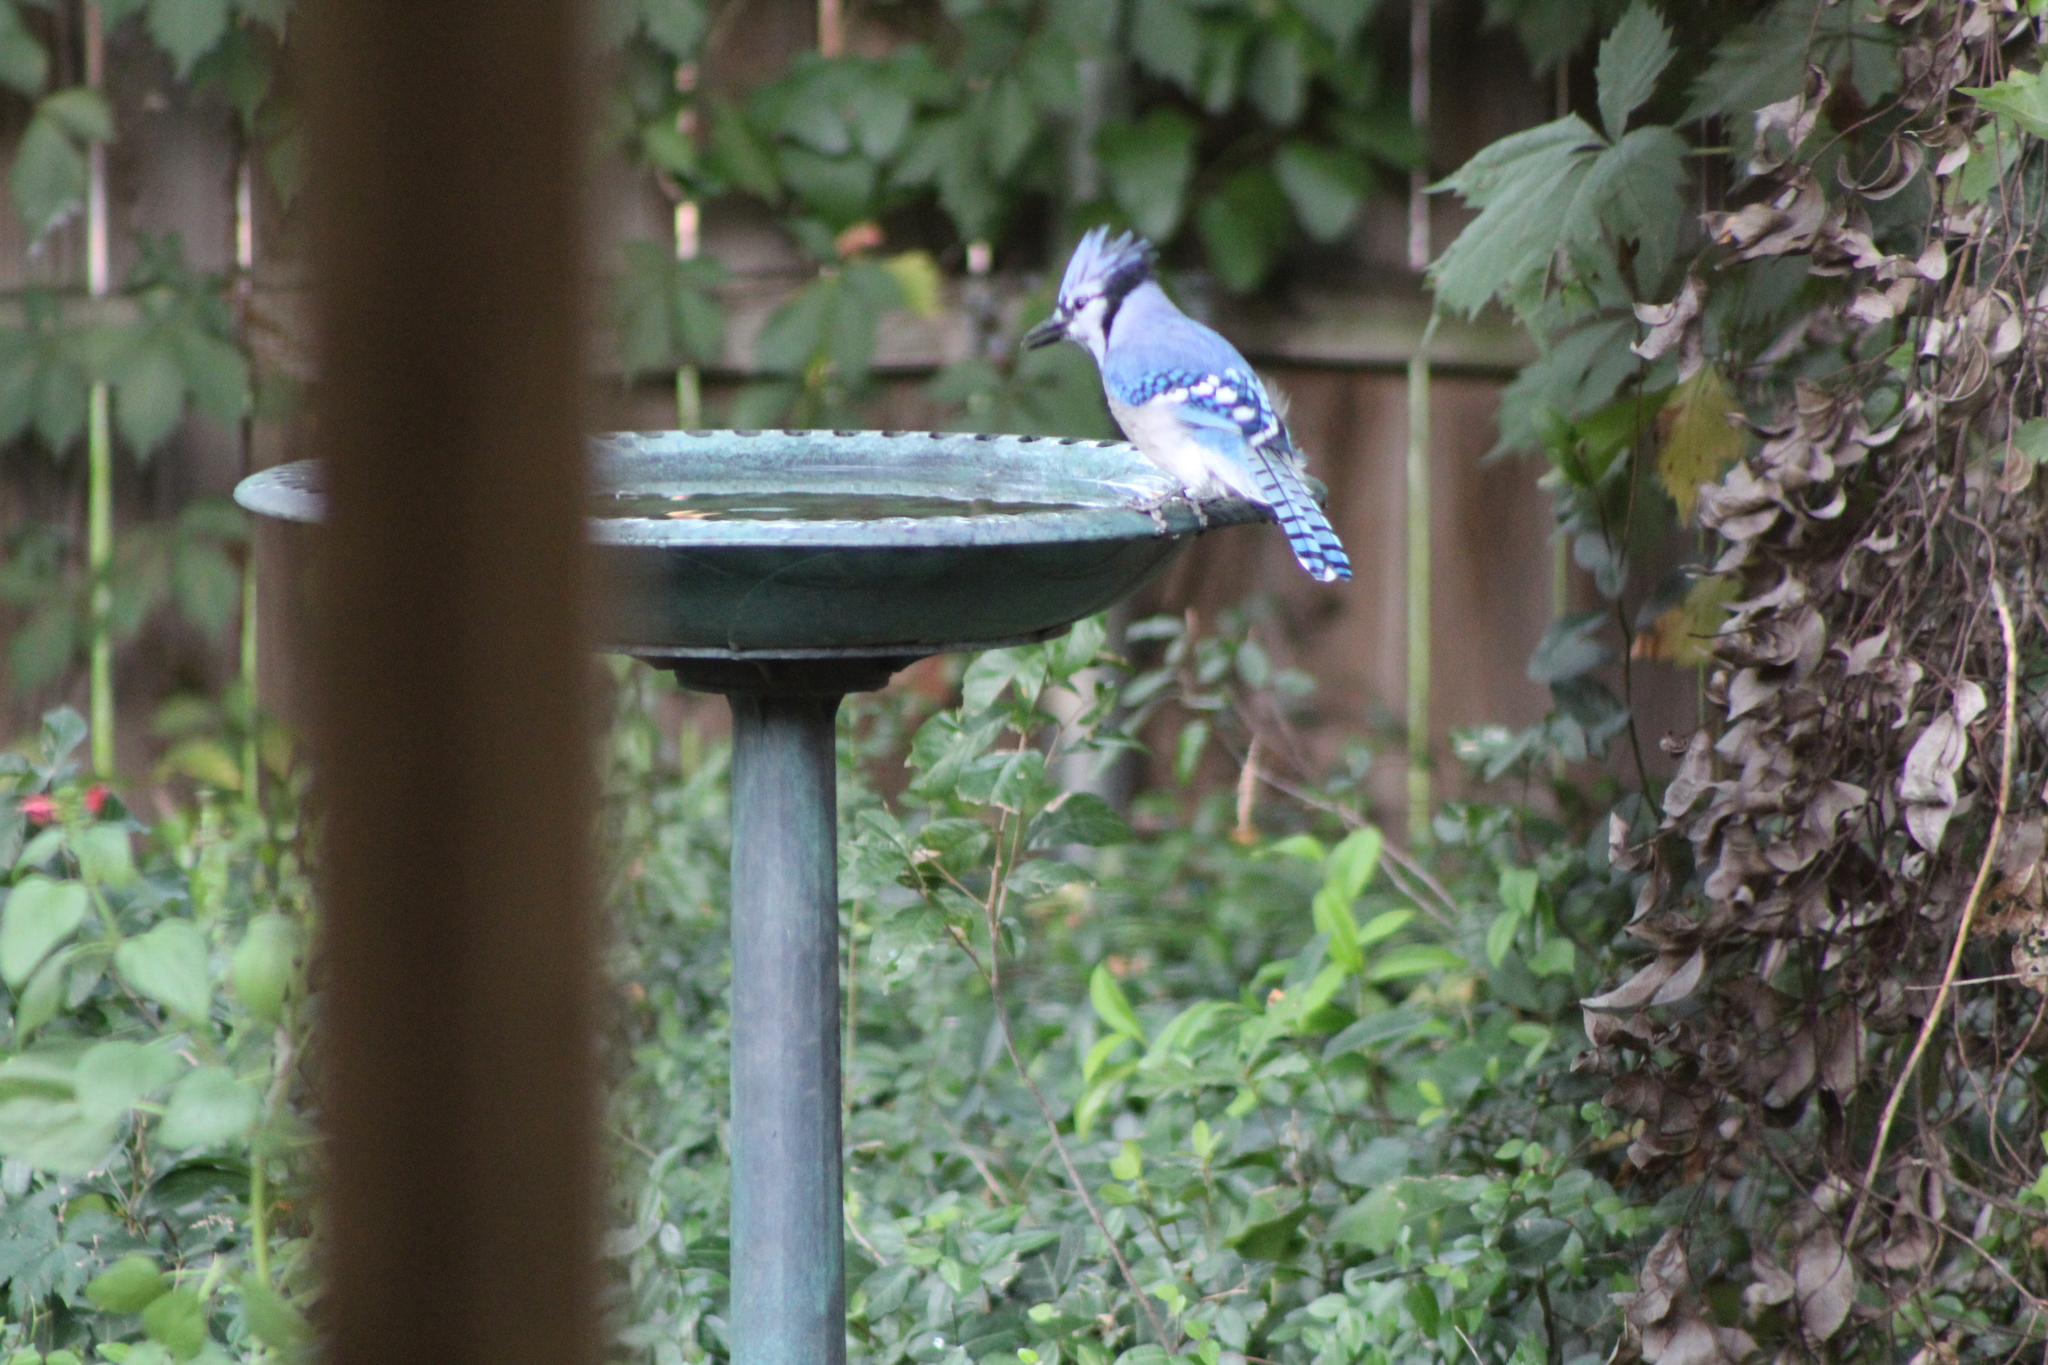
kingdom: Animalia
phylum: Chordata
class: Aves
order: Passeriformes
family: Corvidae
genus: Cyanocitta
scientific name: Cyanocitta cristata
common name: Blue jay
